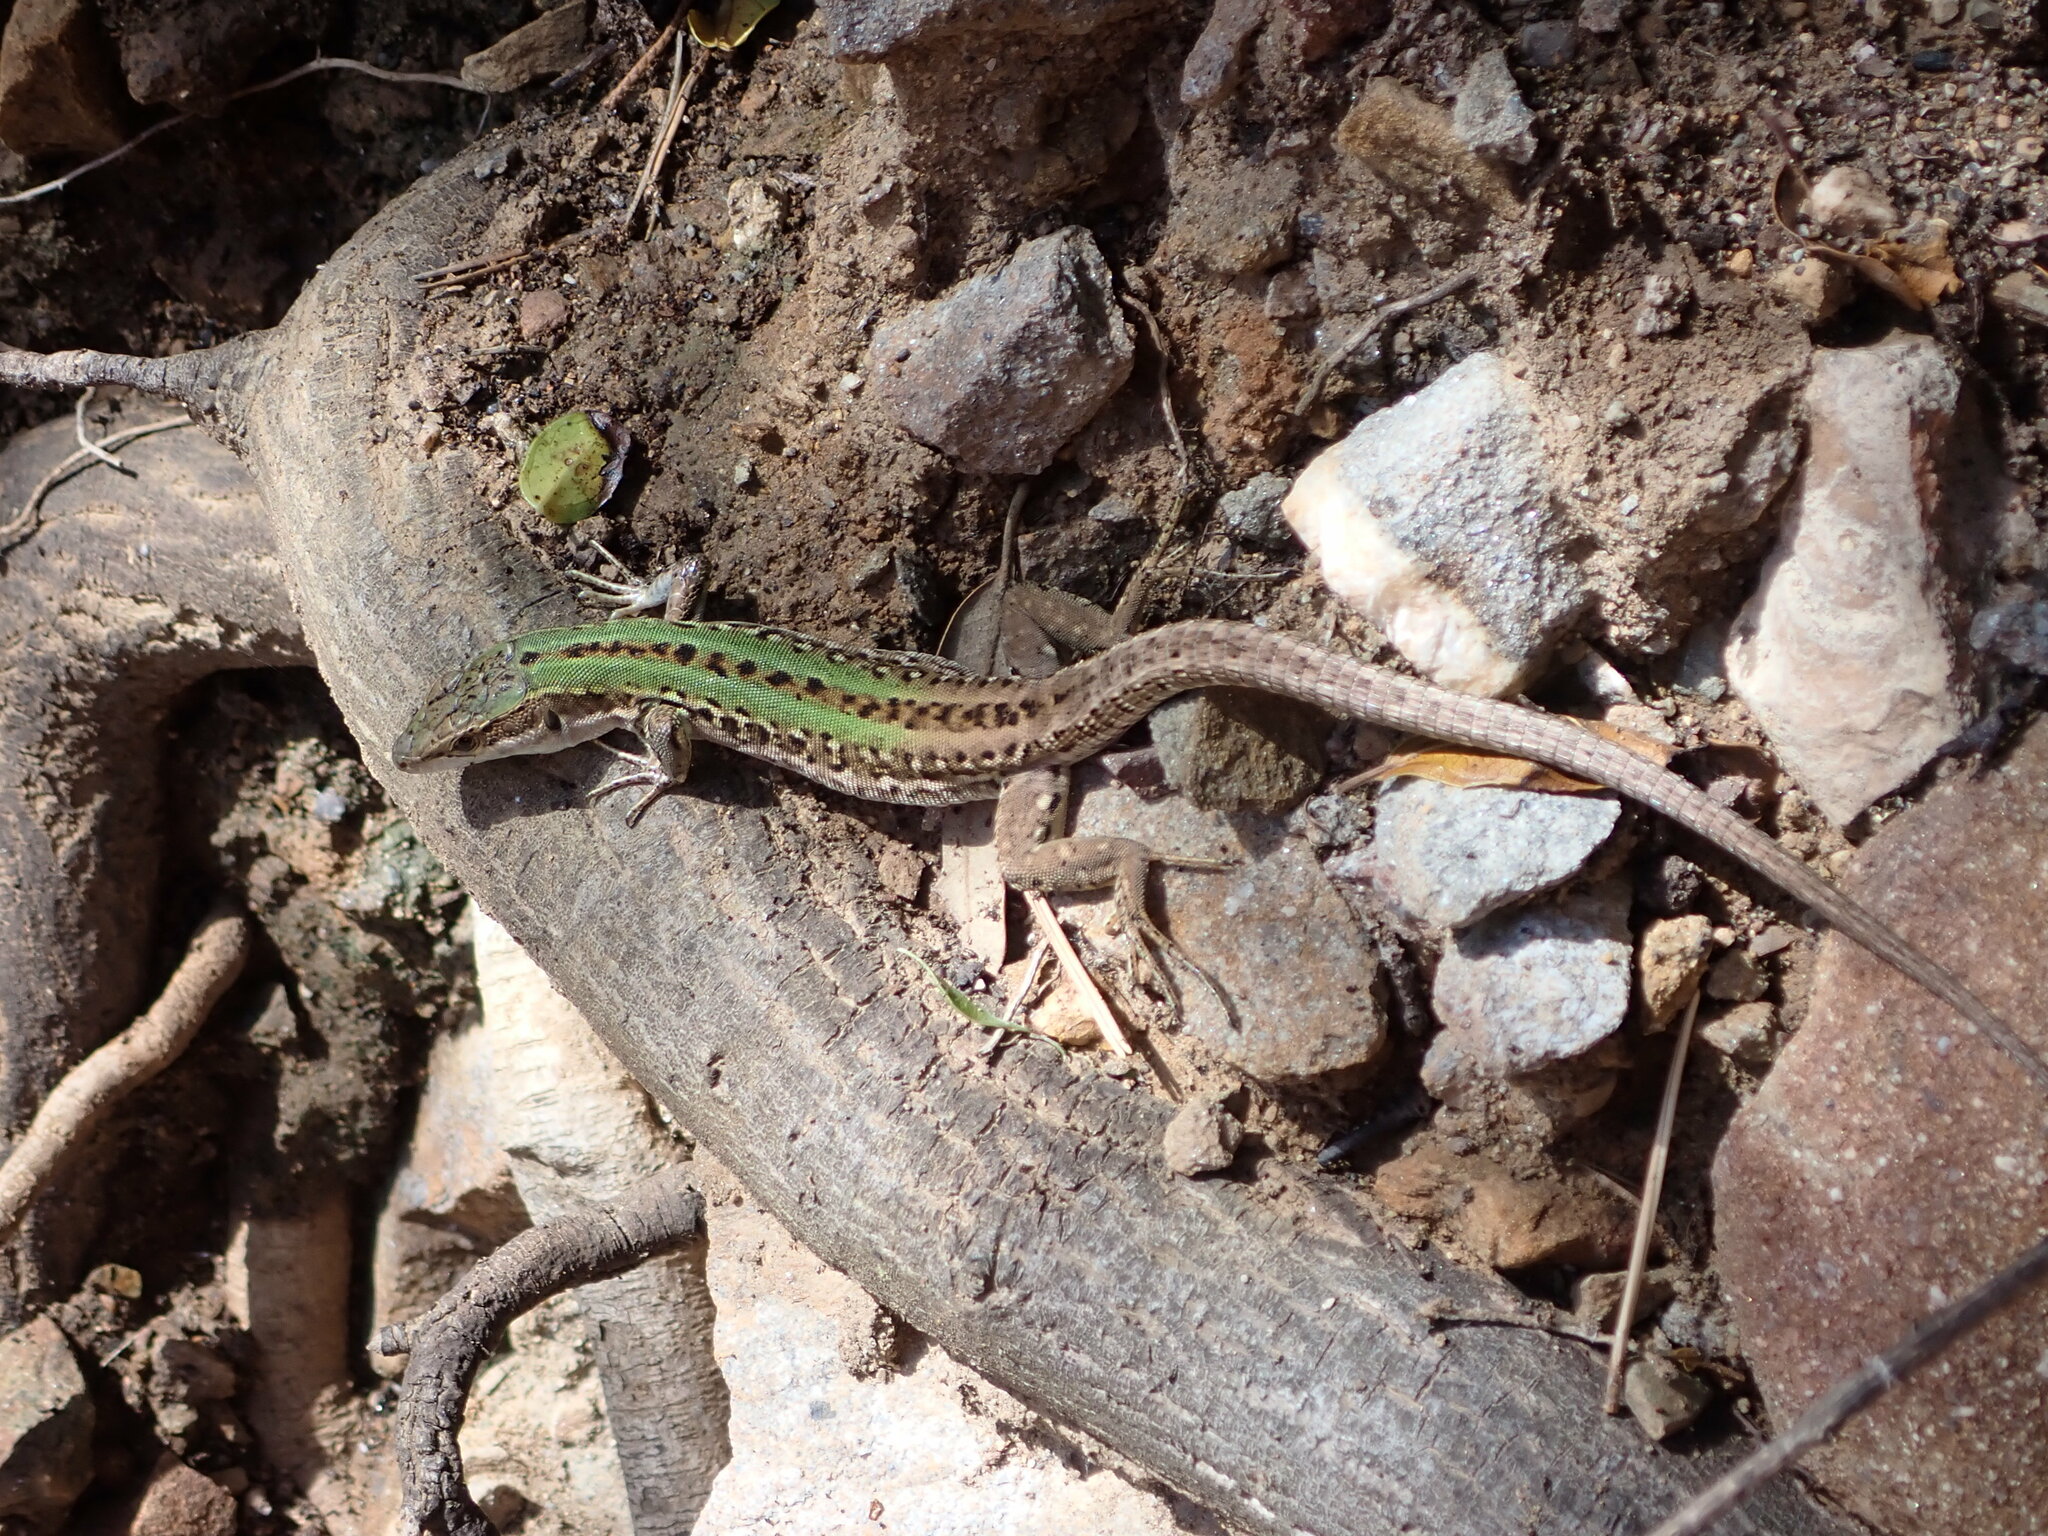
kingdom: Animalia
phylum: Chordata
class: Squamata
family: Lacertidae
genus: Podarcis
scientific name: Podarcis siculus
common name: Italian wall lizard
